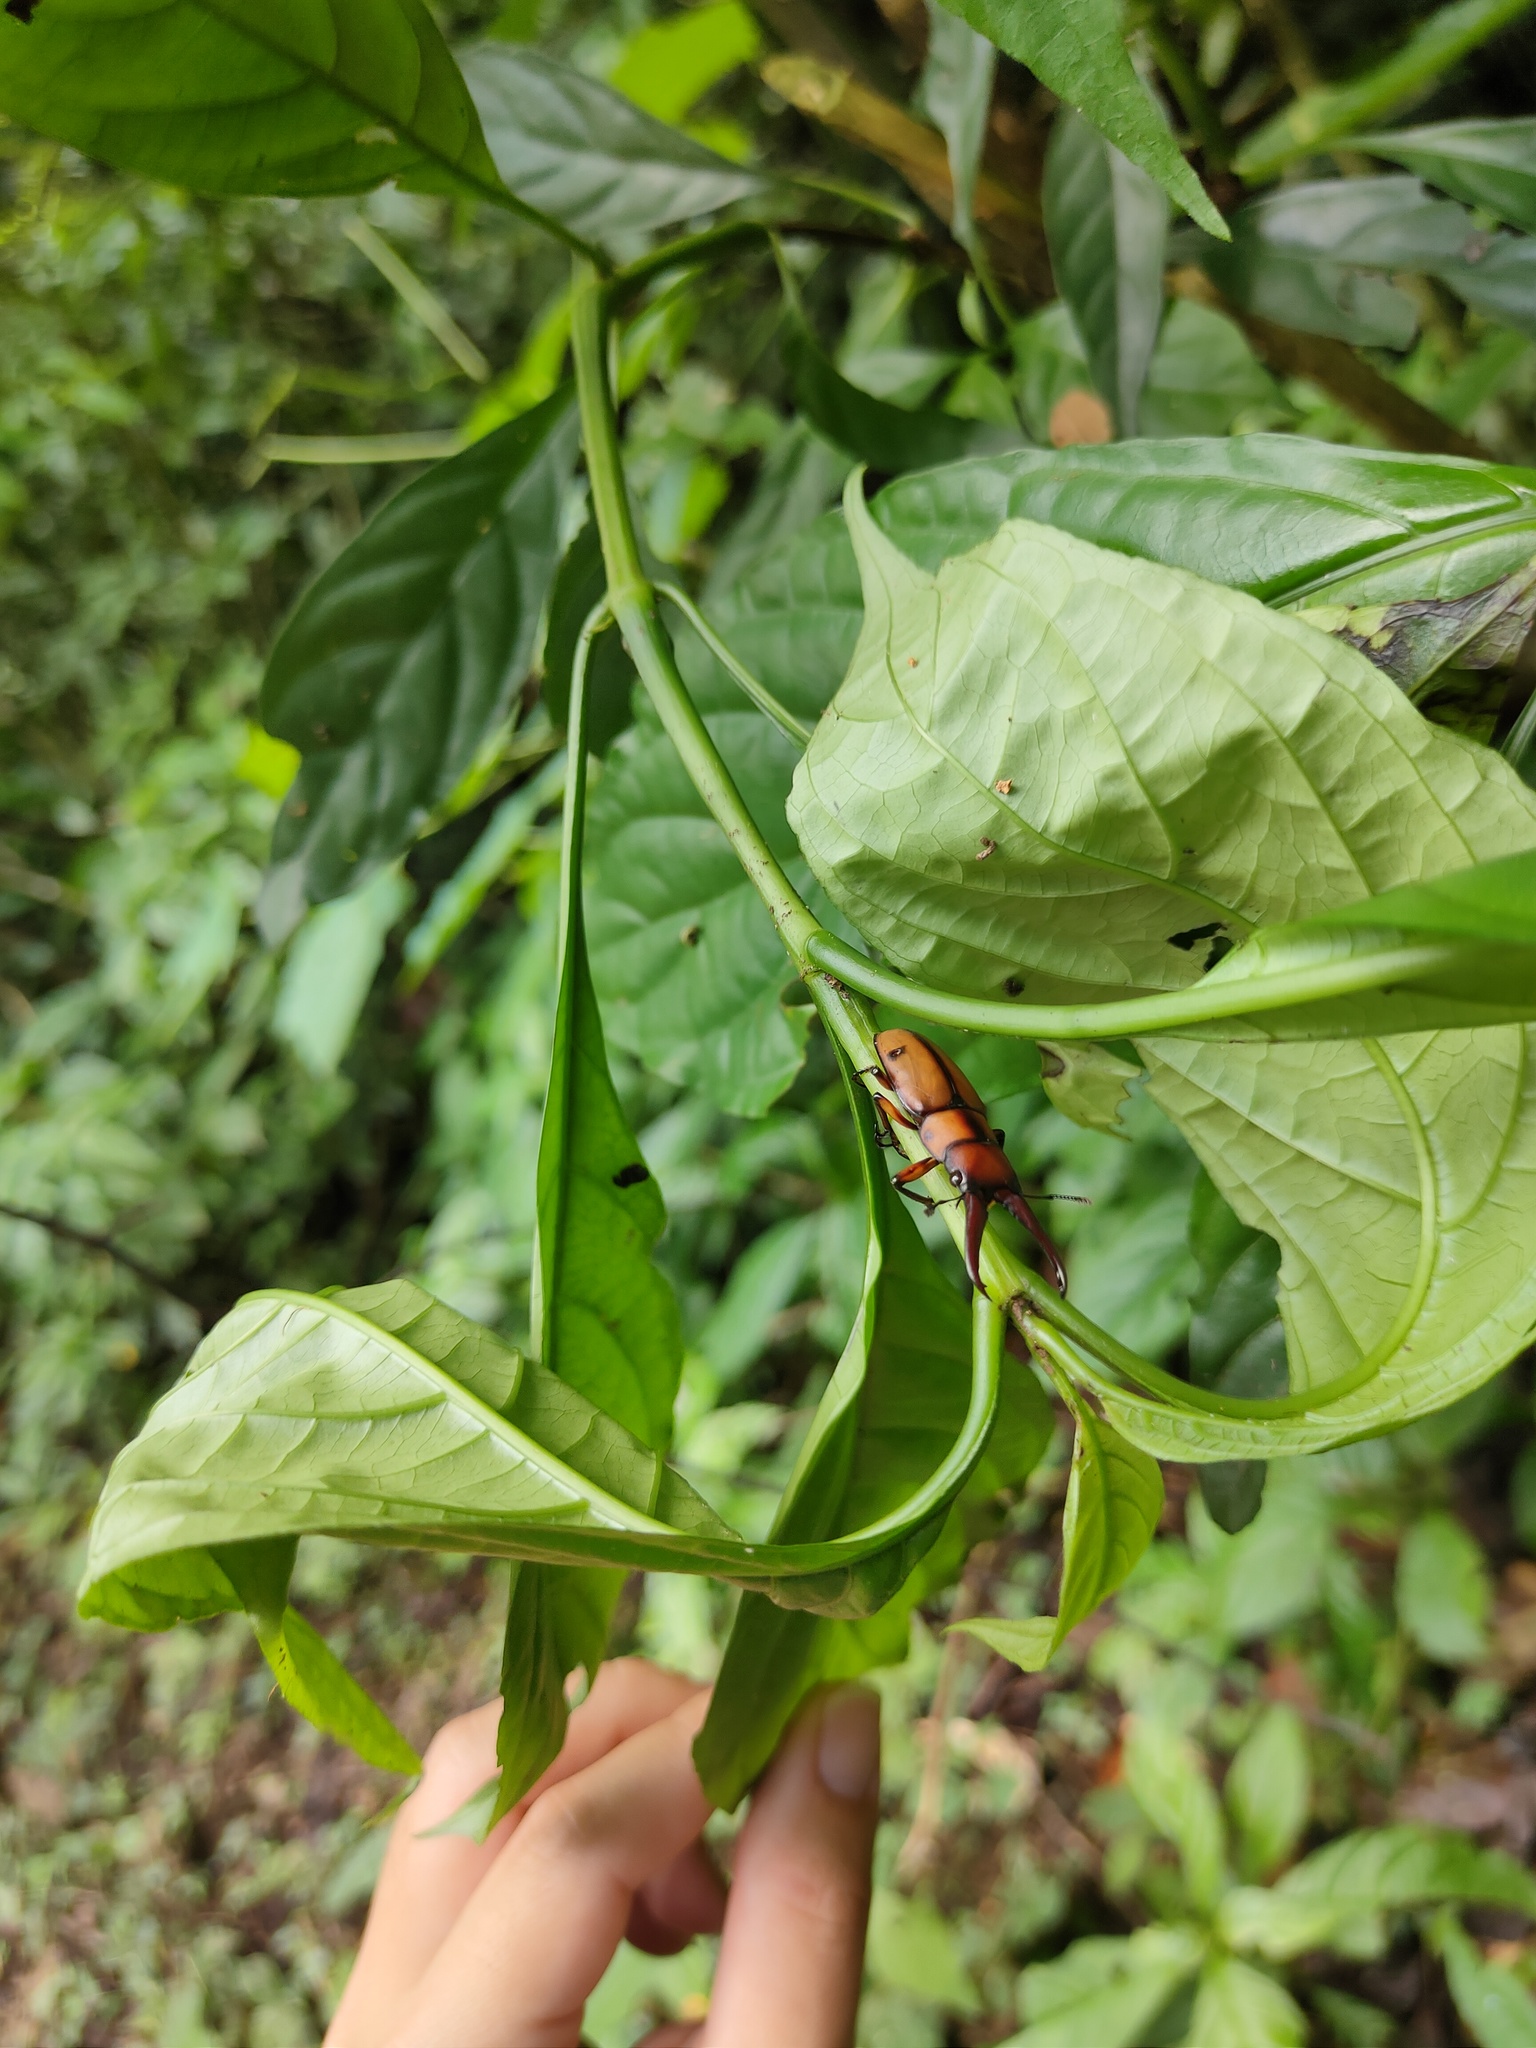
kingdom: Animalia
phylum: Arthropoda
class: Insecta
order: Coleoptera
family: Lucanidae
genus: Prosopocoilus
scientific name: Prosopocoilus mohnikei
